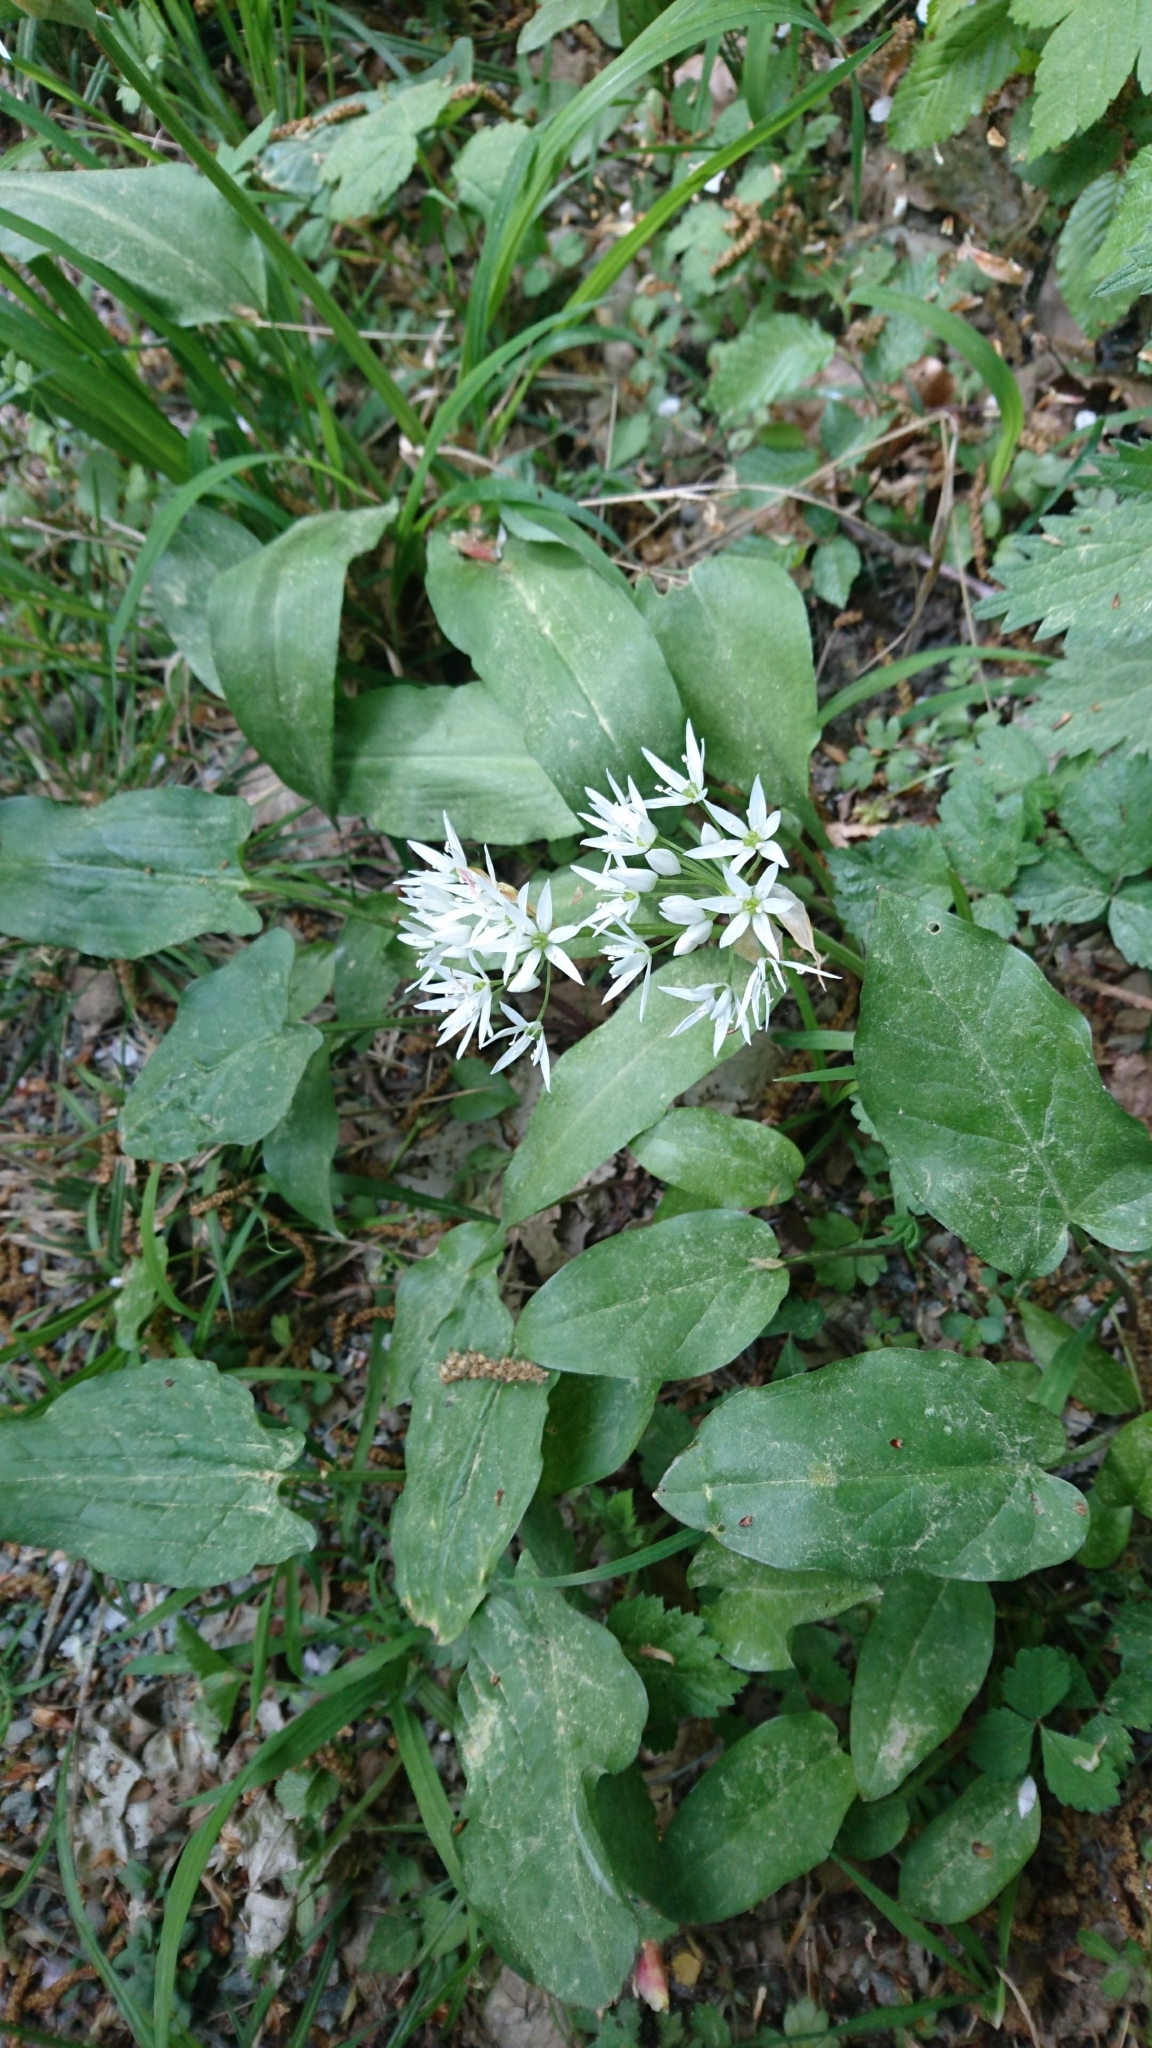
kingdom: Plantae
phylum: Tracheophyta
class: Liliopsida
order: Asparagales
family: Amaryllidaceae
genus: Allium
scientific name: Allium ursinum
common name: Ramsons
